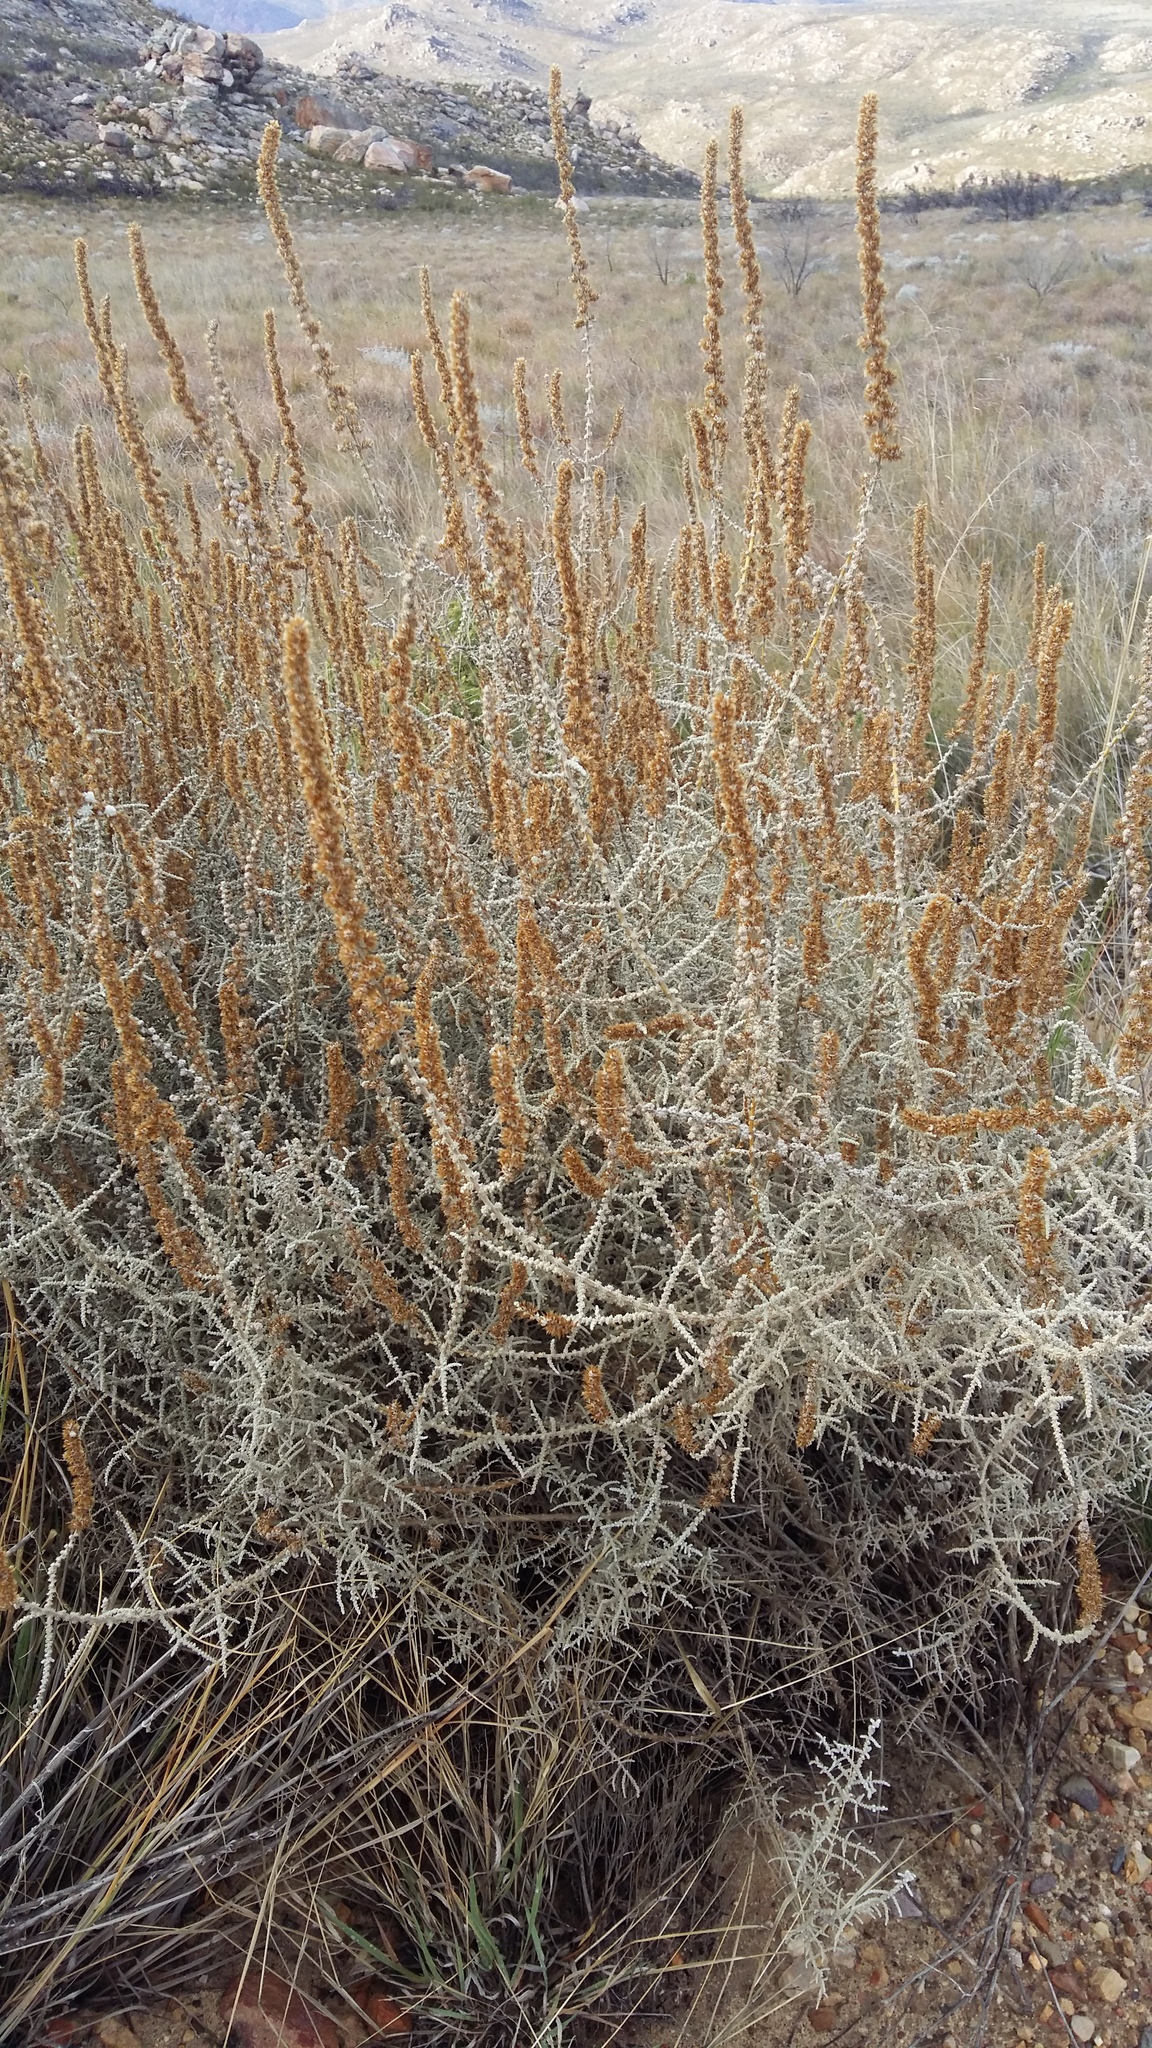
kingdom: Plantae
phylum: Tracheophyta
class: Magnoliopsida
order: Asterales
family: Asteraceae
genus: Seriphium
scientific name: Seriphium plumosum
